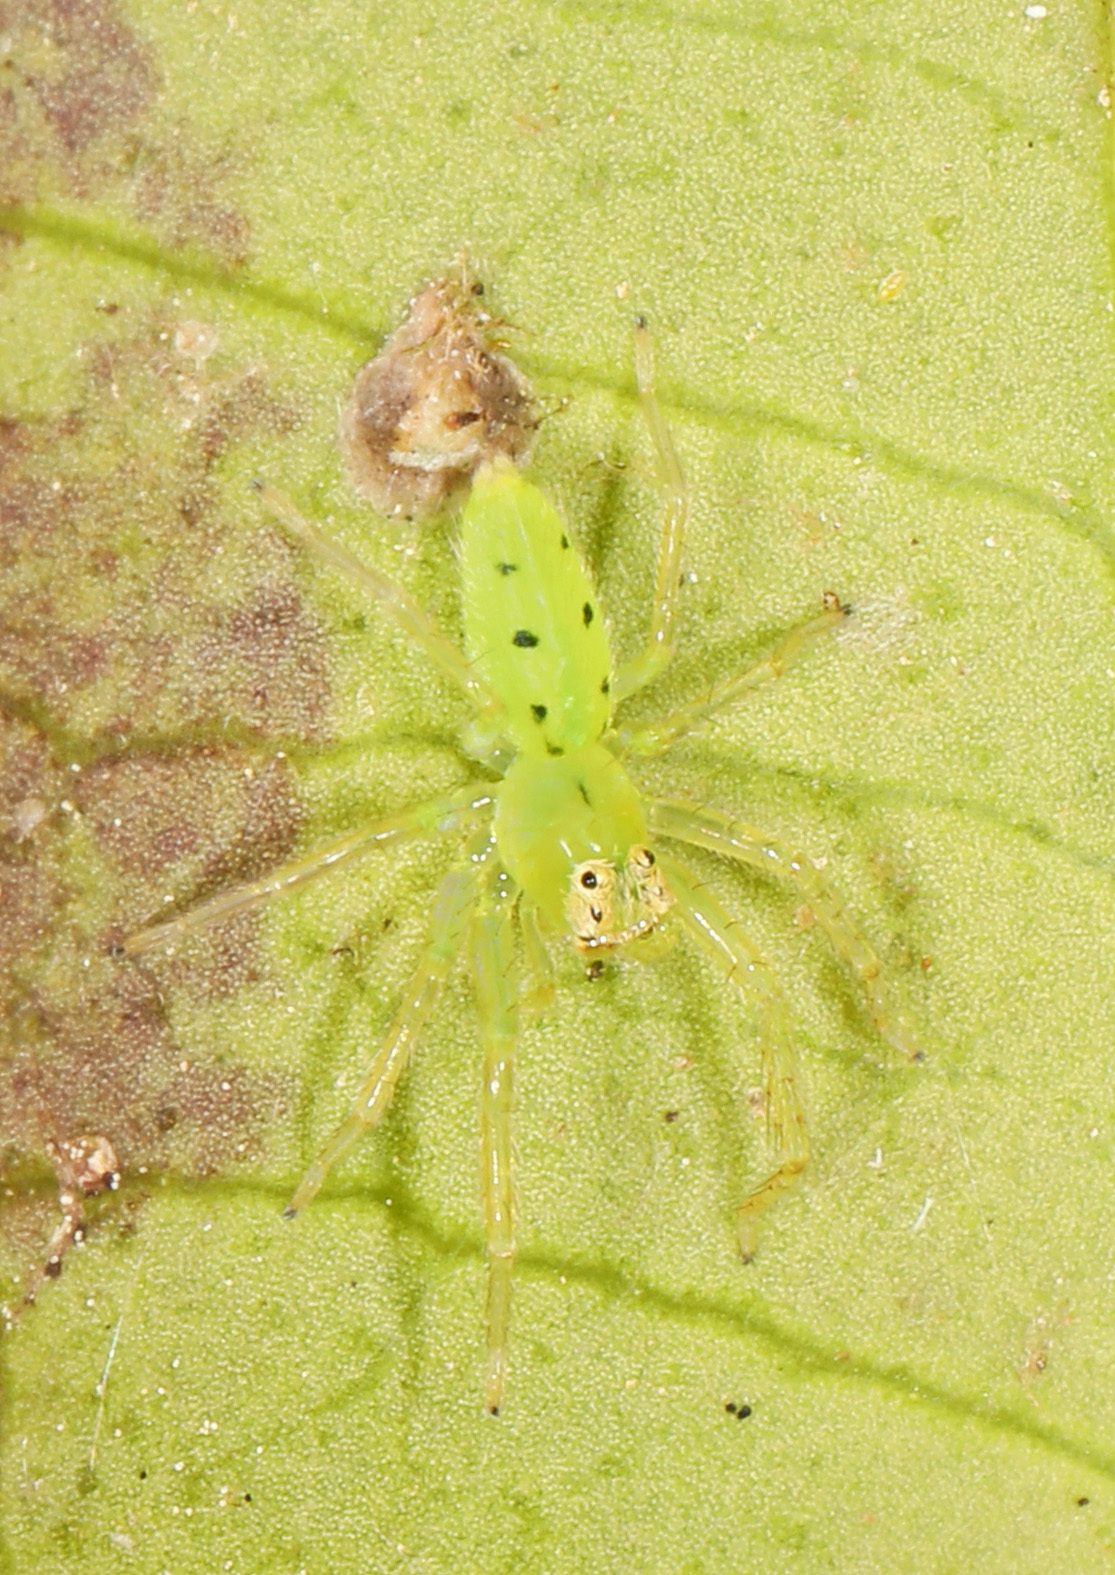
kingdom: Animalia
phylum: Arthropoda
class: Arachnida
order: Araneae
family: Salticidae
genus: Lyssomanes
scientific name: Lyssomanes viridis
